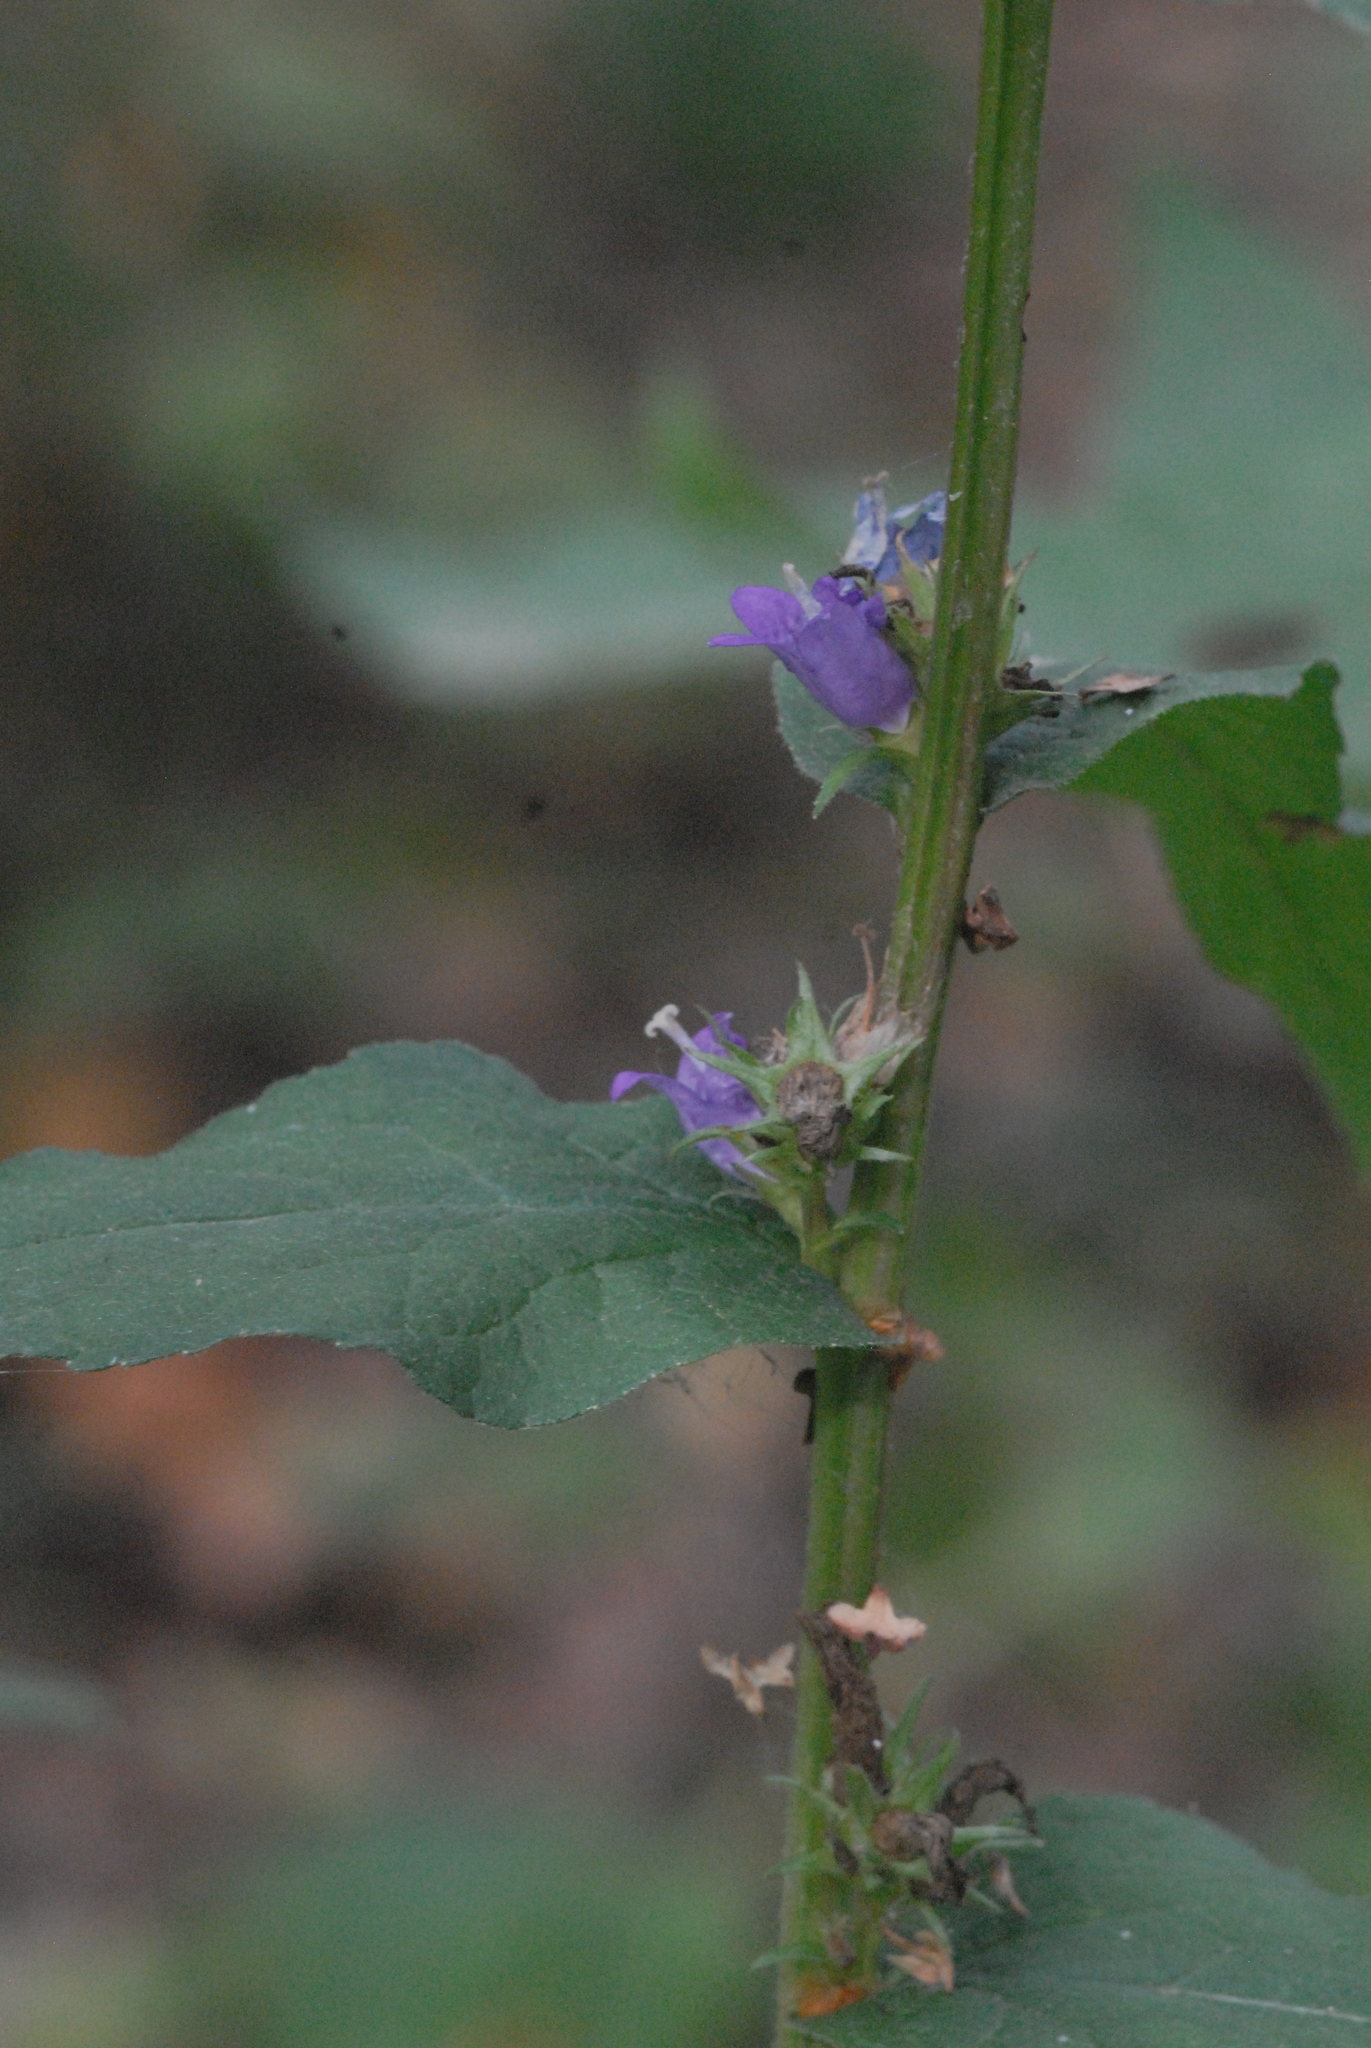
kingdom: Plantae
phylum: Tracheophyta
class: Magnoliopsida
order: Asterales
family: Campanulaceae
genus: Campanula
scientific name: Campanula glomerata
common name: Clustered bellflower
